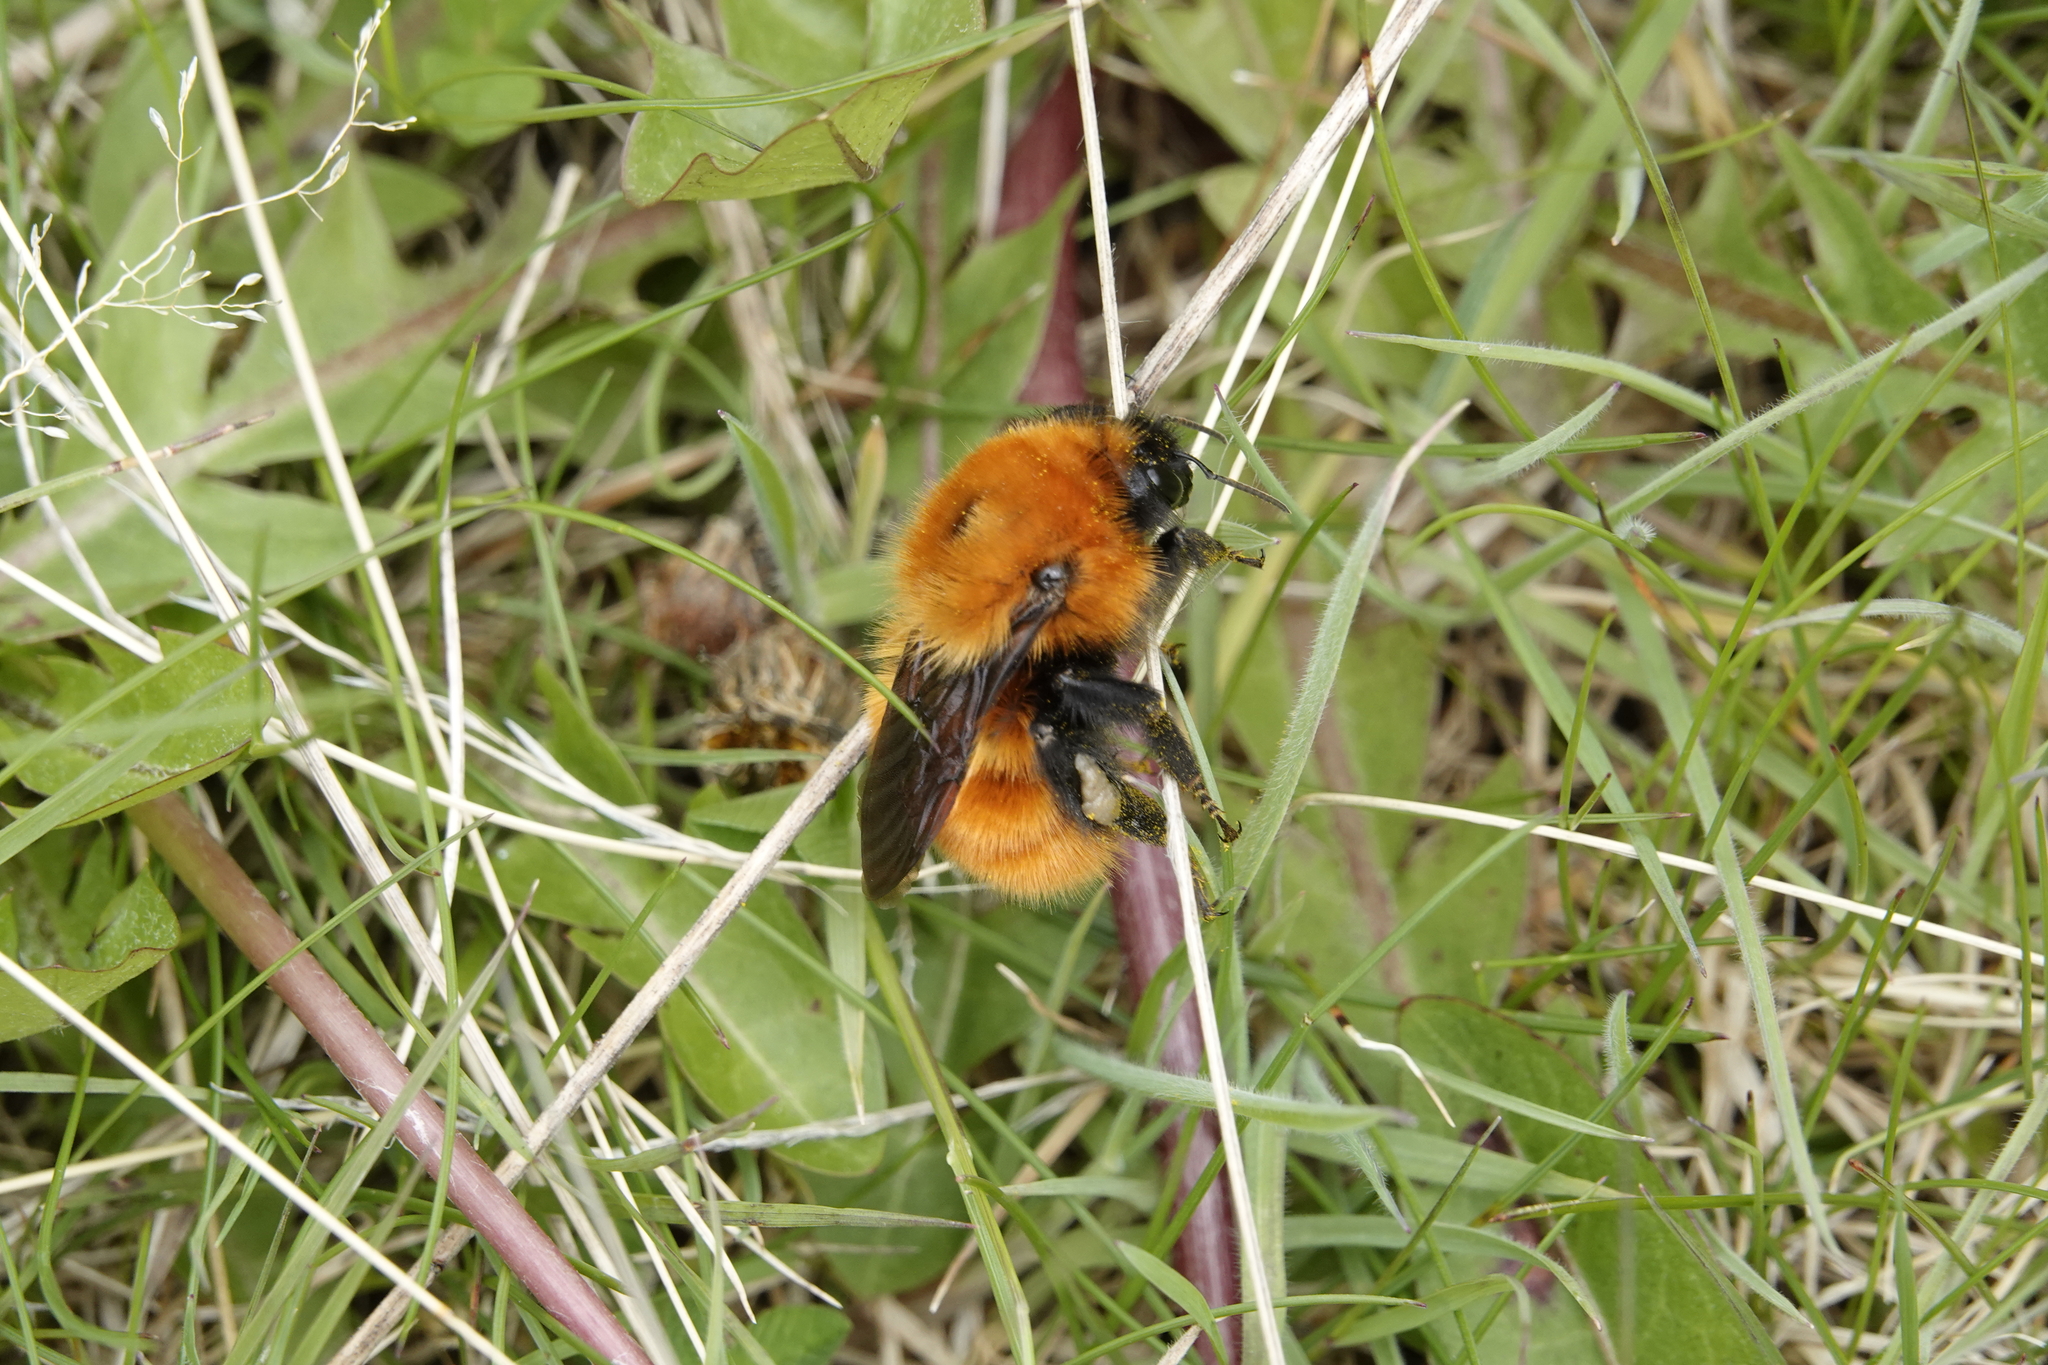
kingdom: Animalia
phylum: Arthropoda
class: Insecta
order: Hymenoptera
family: Apidae
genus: Bombus
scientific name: Bombus dahlbomii
